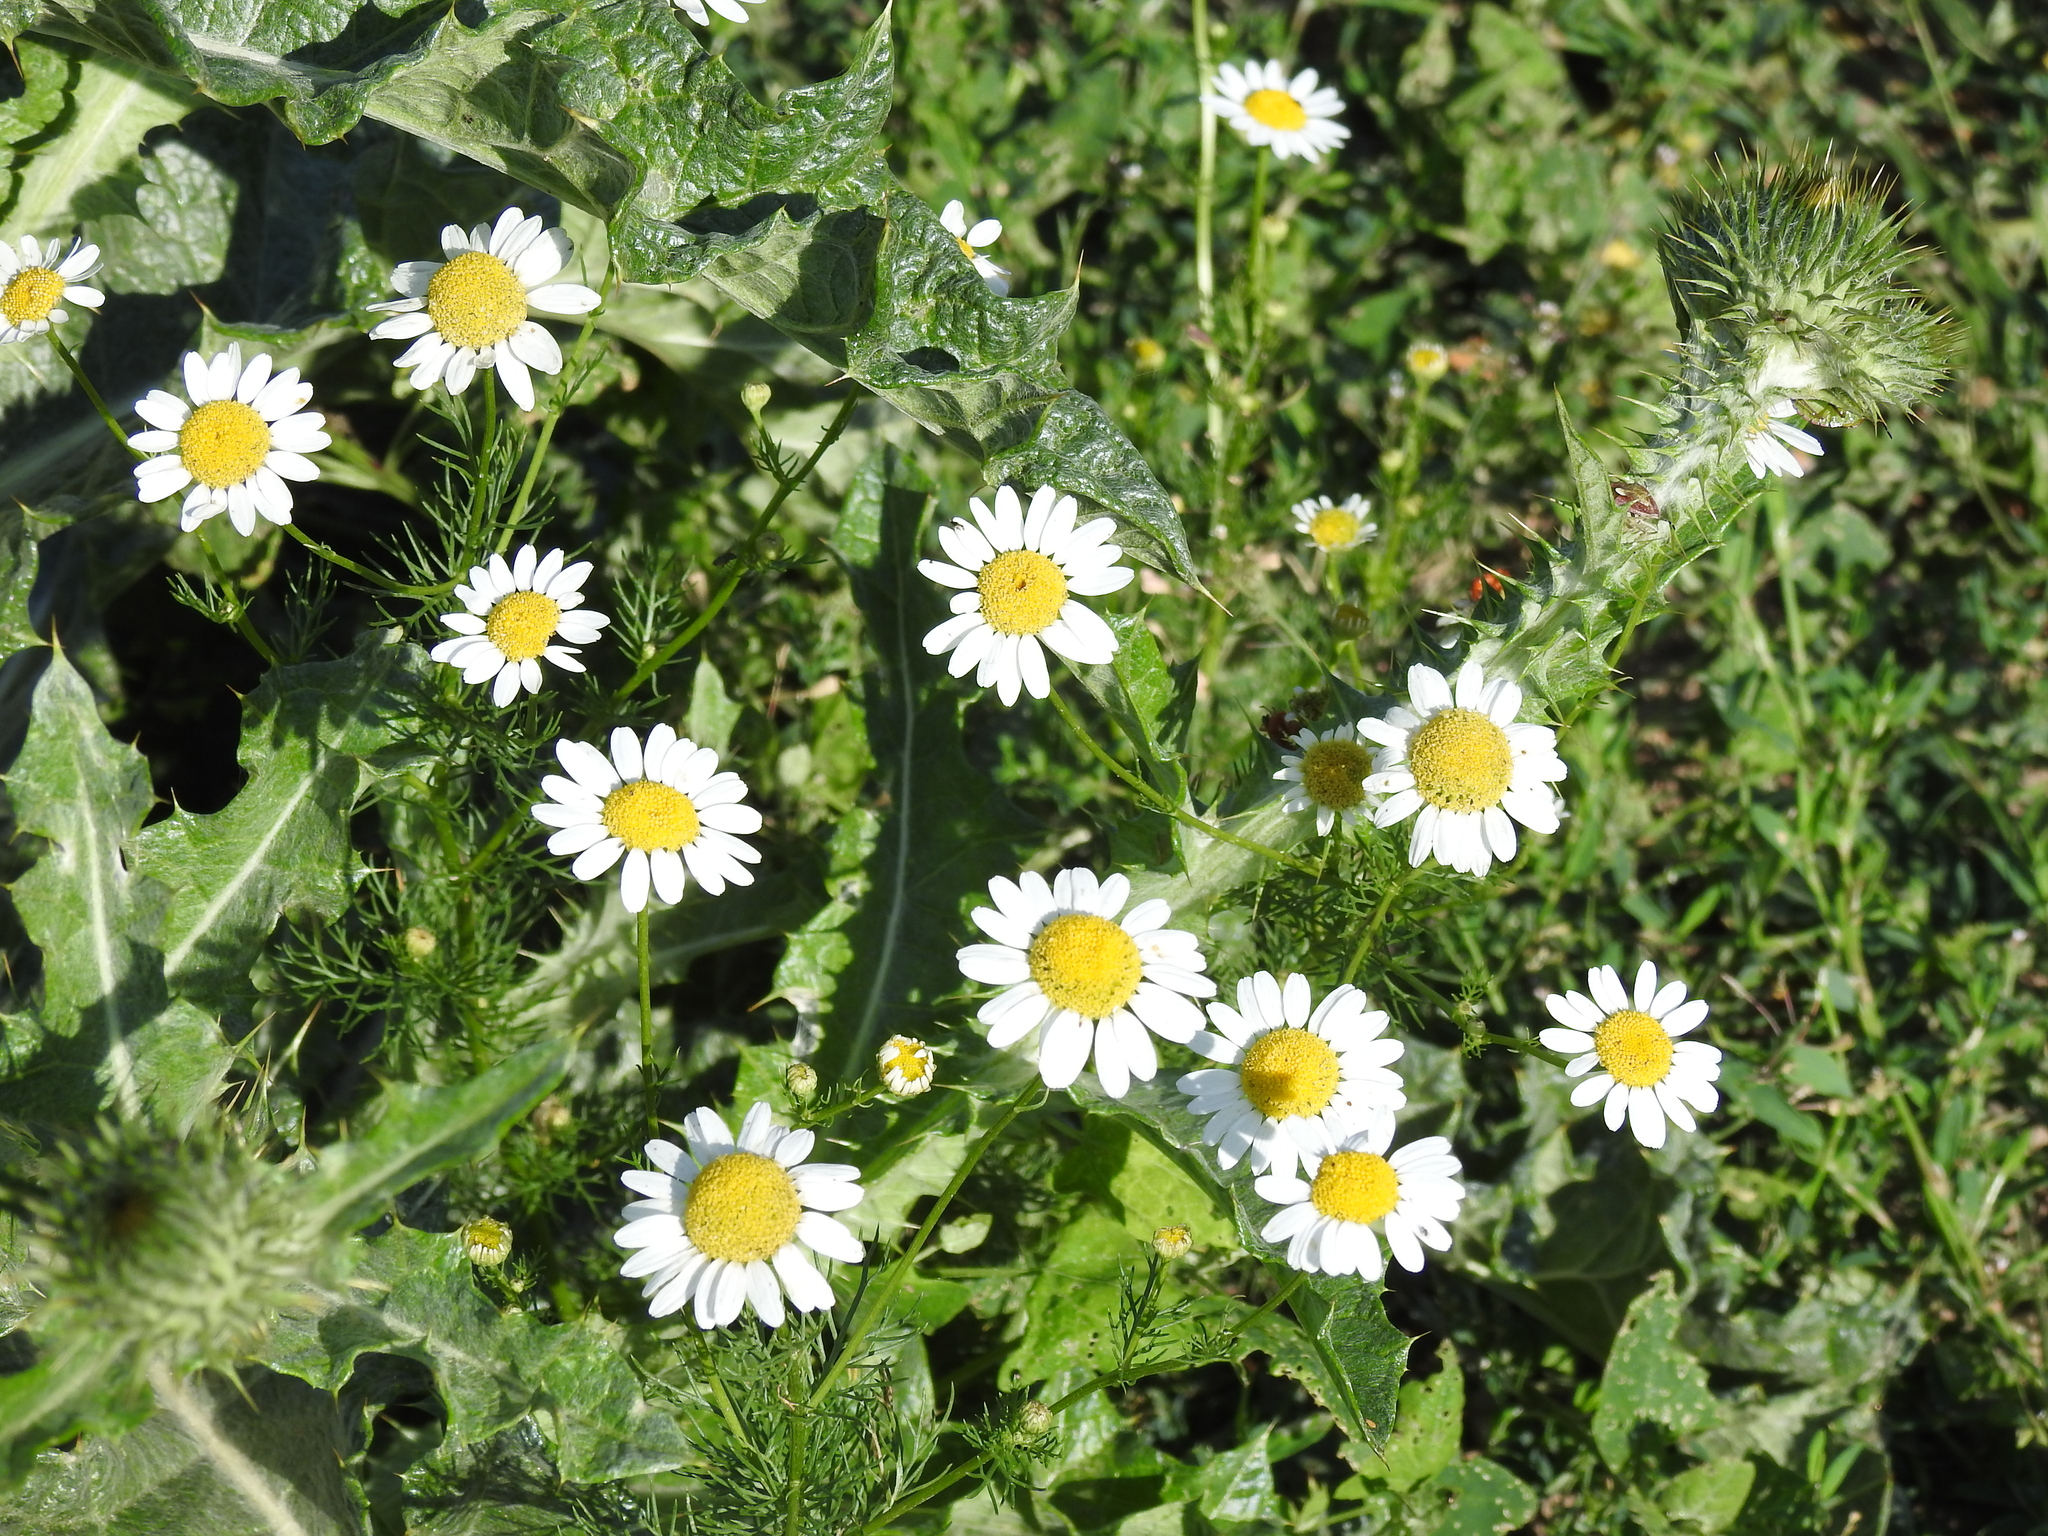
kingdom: Plantae
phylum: Tracheophyta
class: Magnoliopsida
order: Asterales
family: Asteraceae
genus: Tripleurospermum
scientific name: Tripleurospermum inodorum
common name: Scentless mayweed
